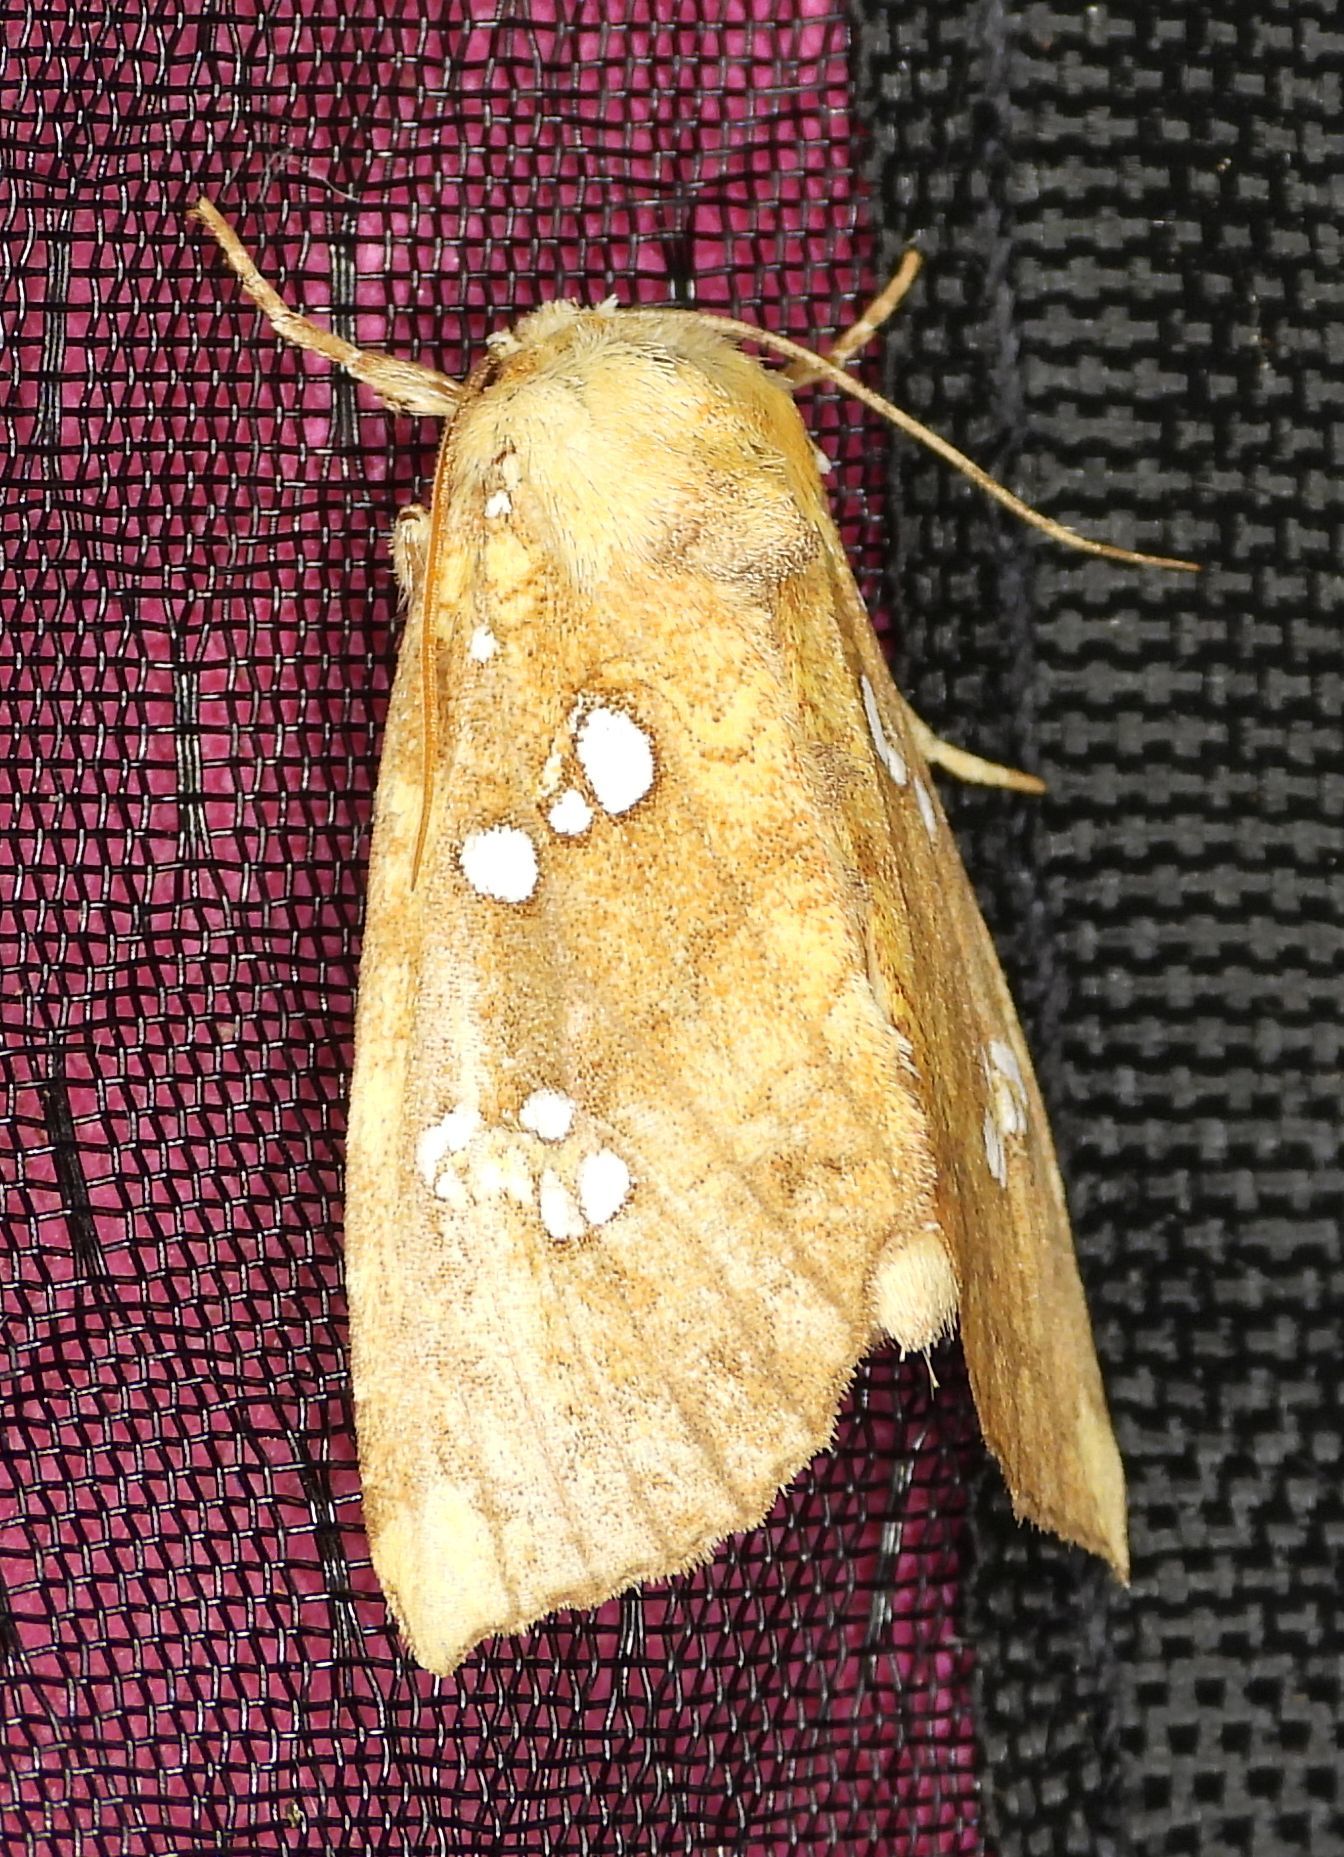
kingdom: Animalia
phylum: Arthropoda
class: Insecta
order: Lepidoptera
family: Noctuidae
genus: Papaipema
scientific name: Papaipema furcata
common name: Ash tip borer moth
